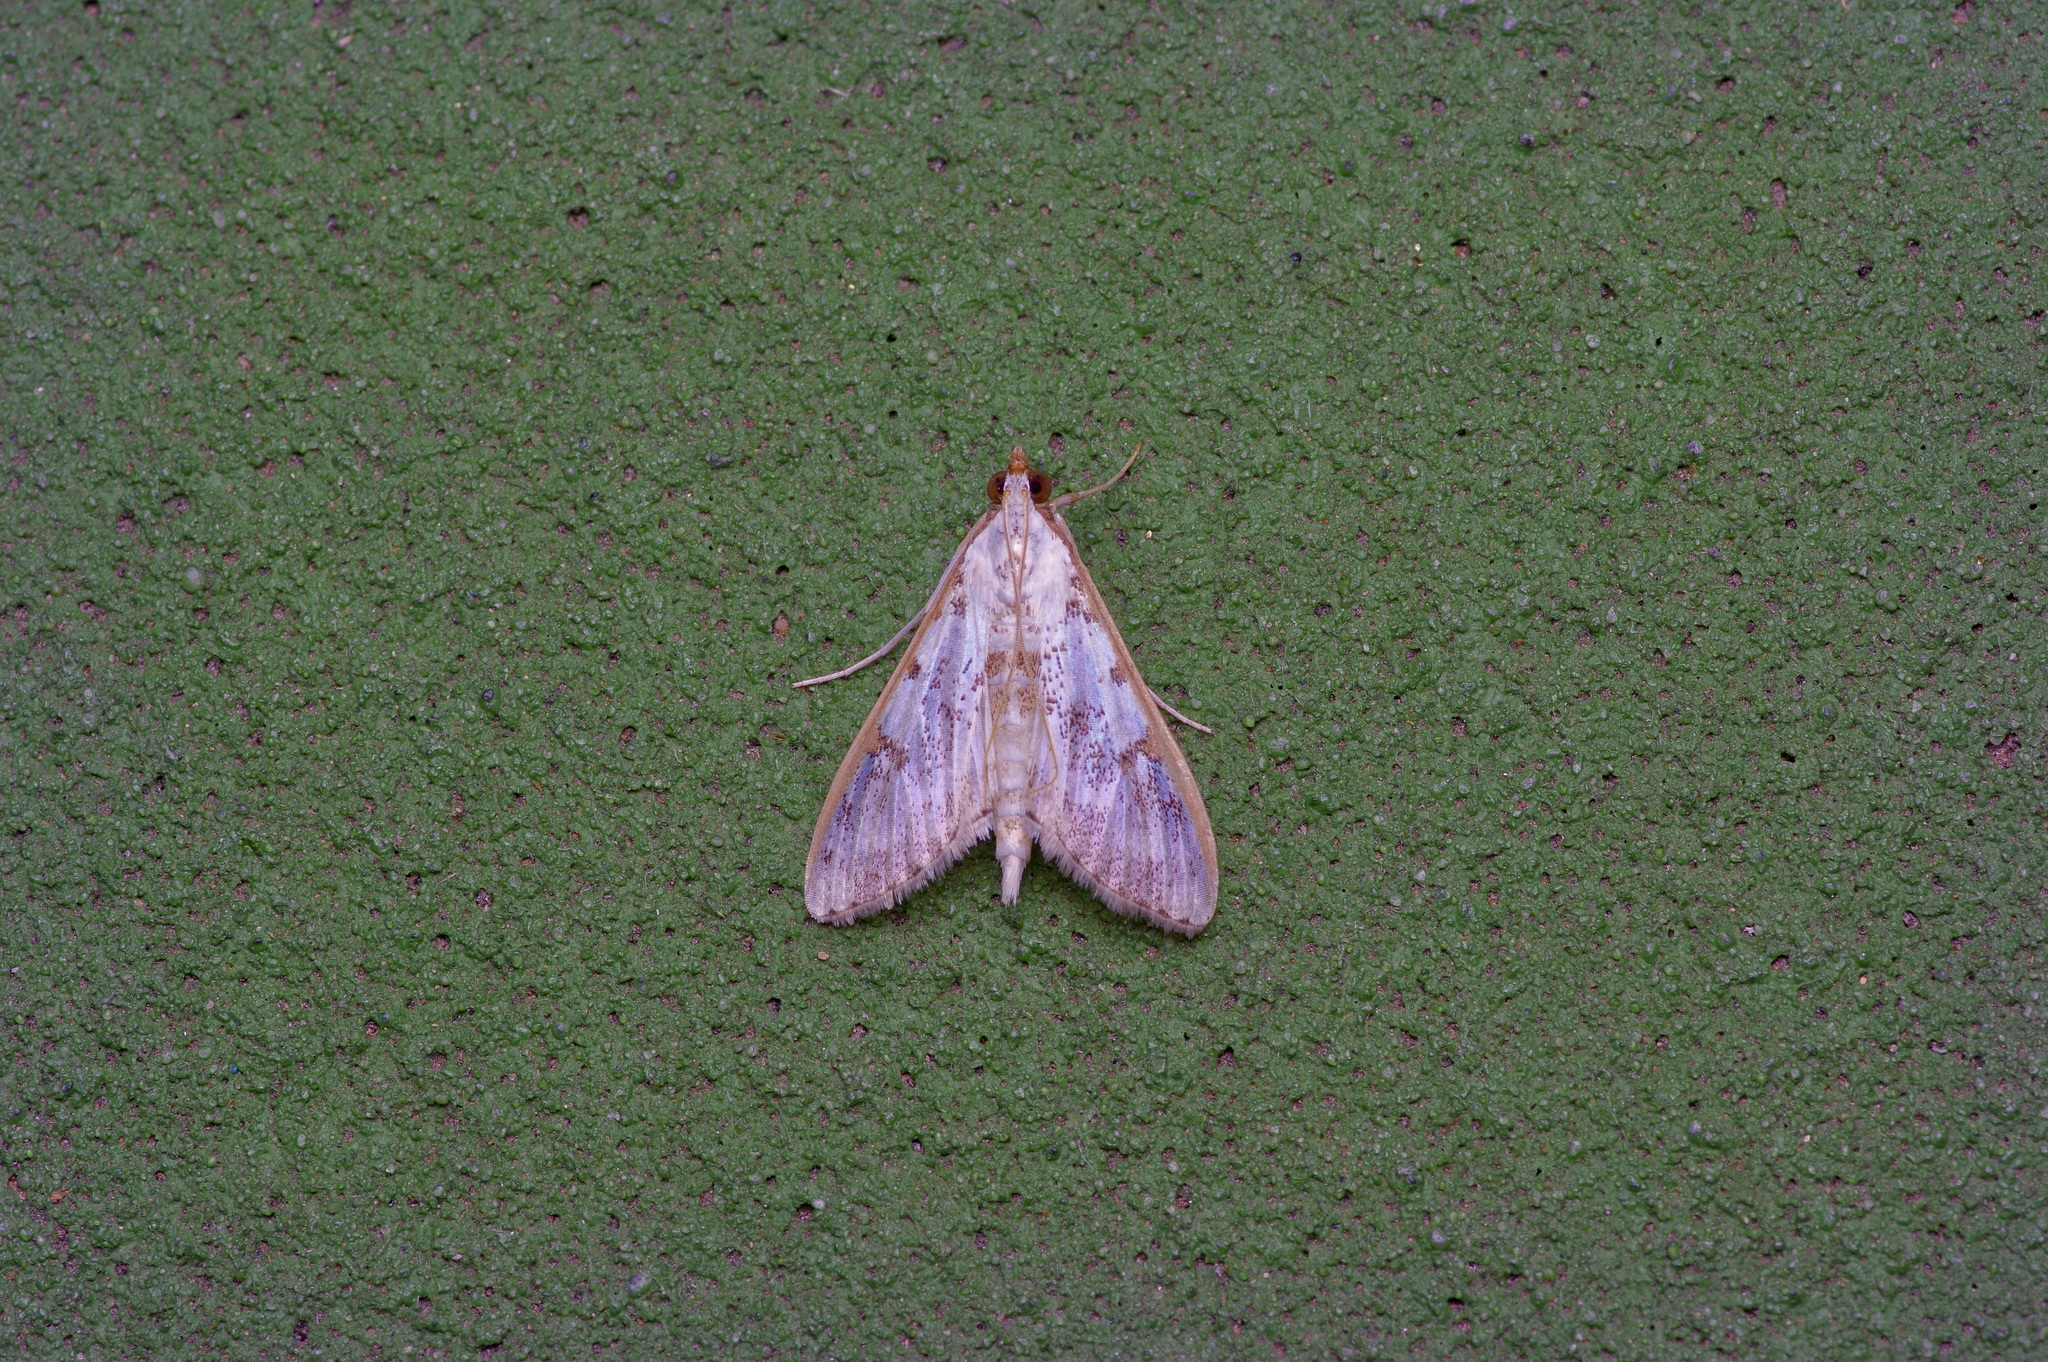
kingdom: Animalia
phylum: Arthropoda
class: Insecta
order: Lepidoptera
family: Crambidae
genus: Palpita
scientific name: Palpita gracilalis
